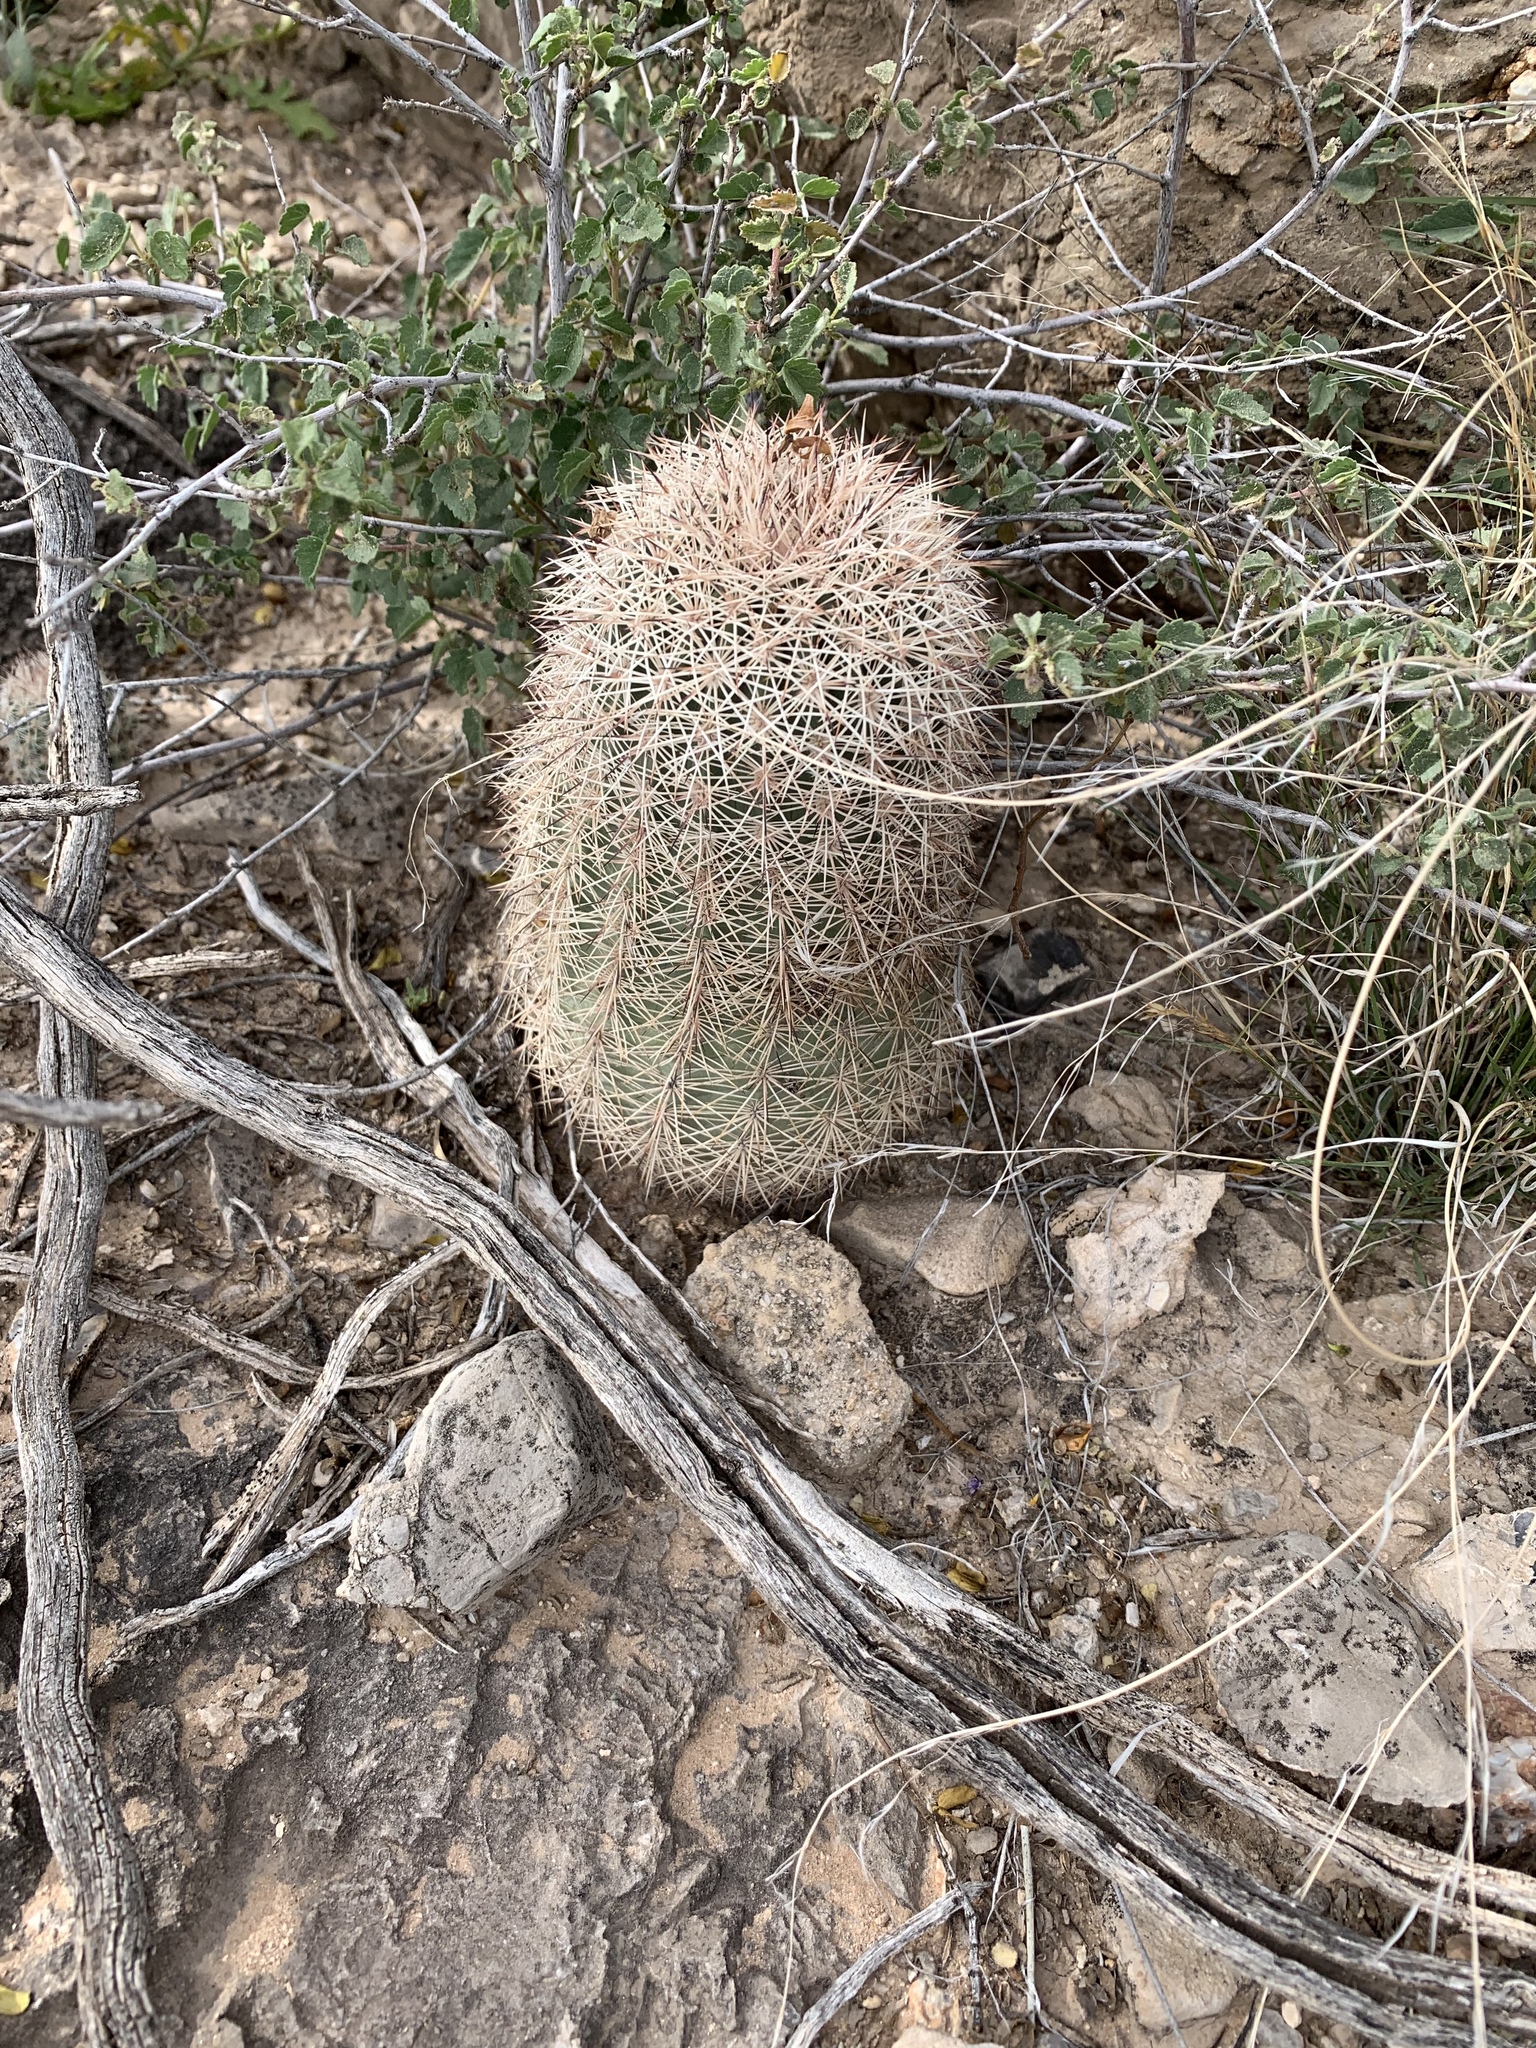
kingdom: Plantae
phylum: Tracheophyta
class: Magnoliopsida
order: Caryophyllales
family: Cactaceae
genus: Echinocereus
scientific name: Echinocereus dasyacanthus
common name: Spiny hedgehog cactus
